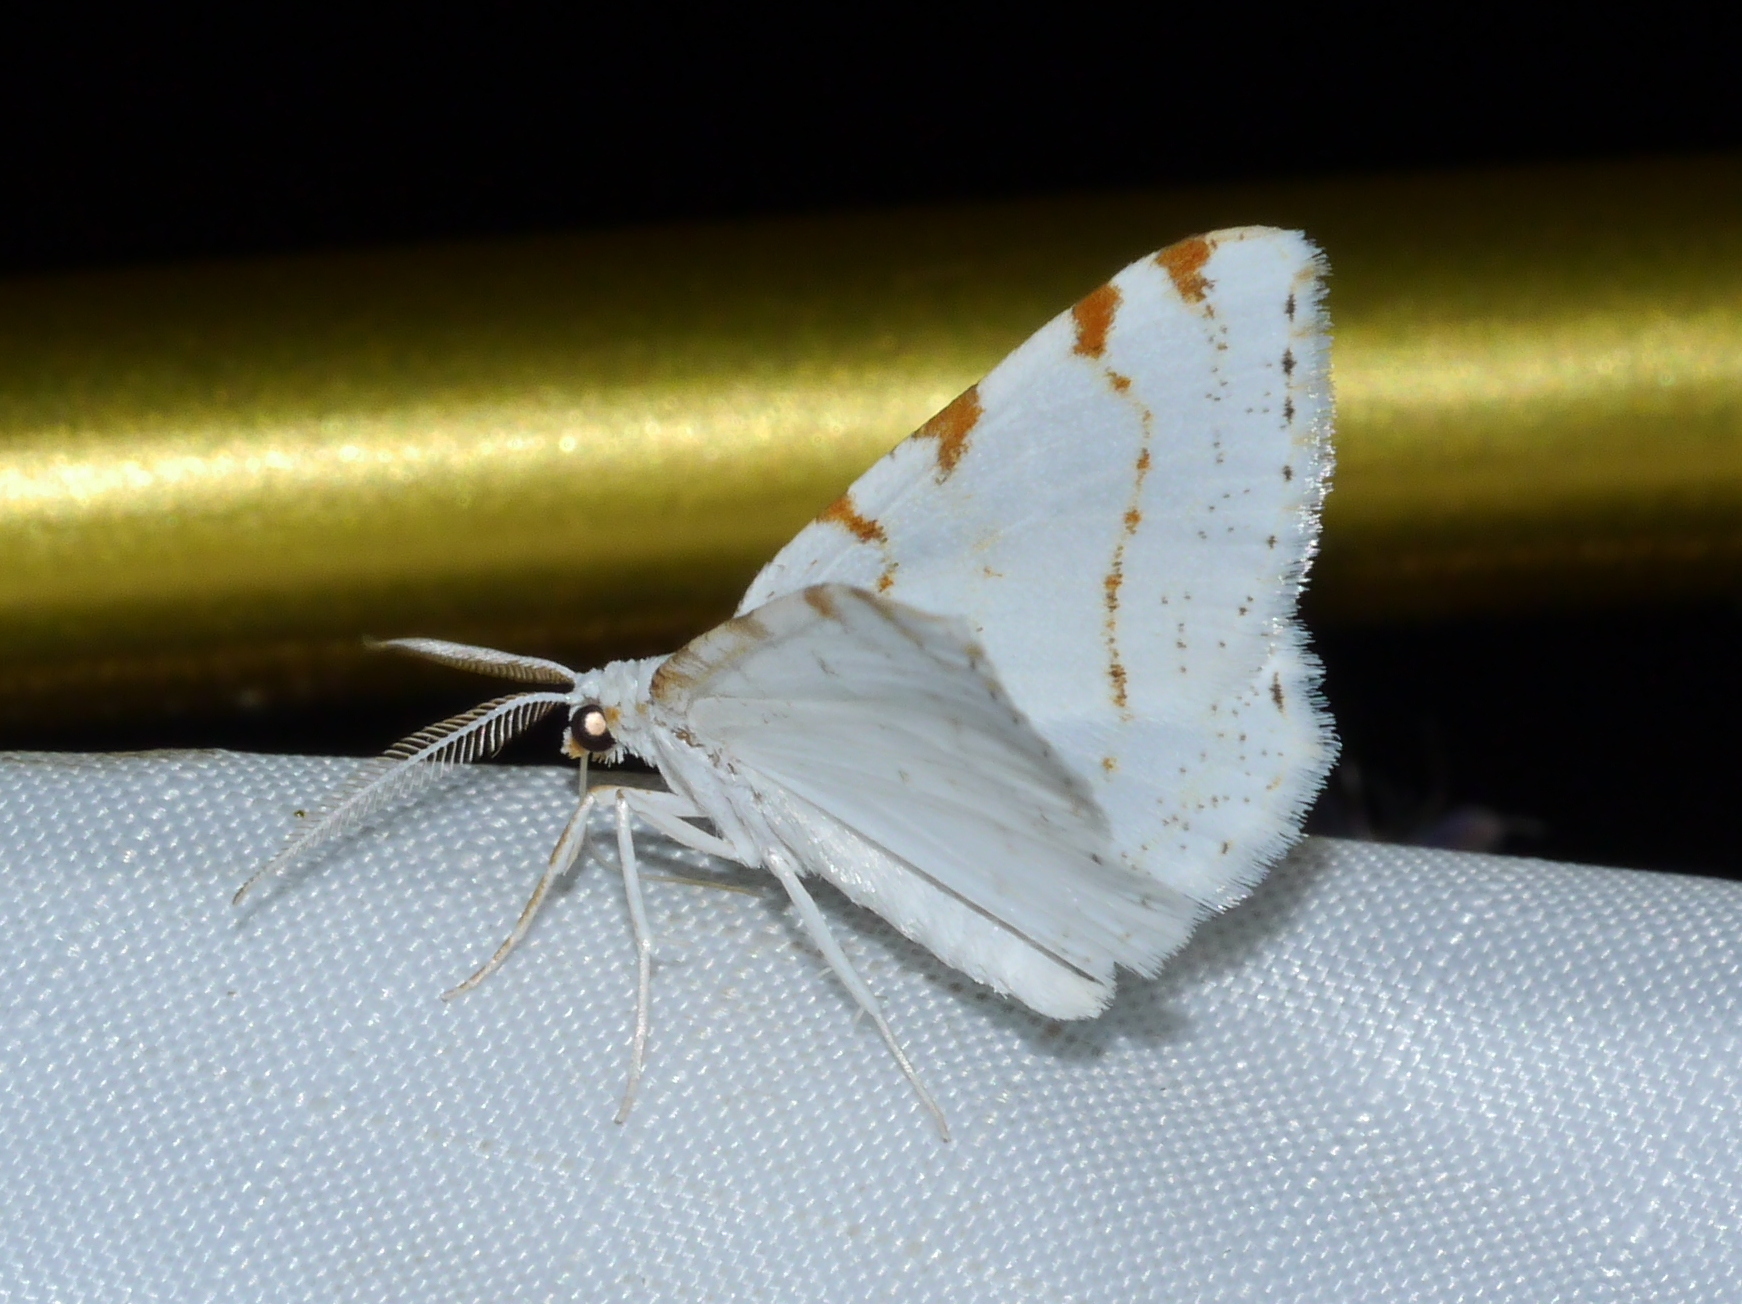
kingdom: Animalia
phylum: Arthropoda
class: Insecta
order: Lepidoptera
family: Geometridae
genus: Macaria
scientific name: Macaria pustularia
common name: Lesser maple spanworm moth
